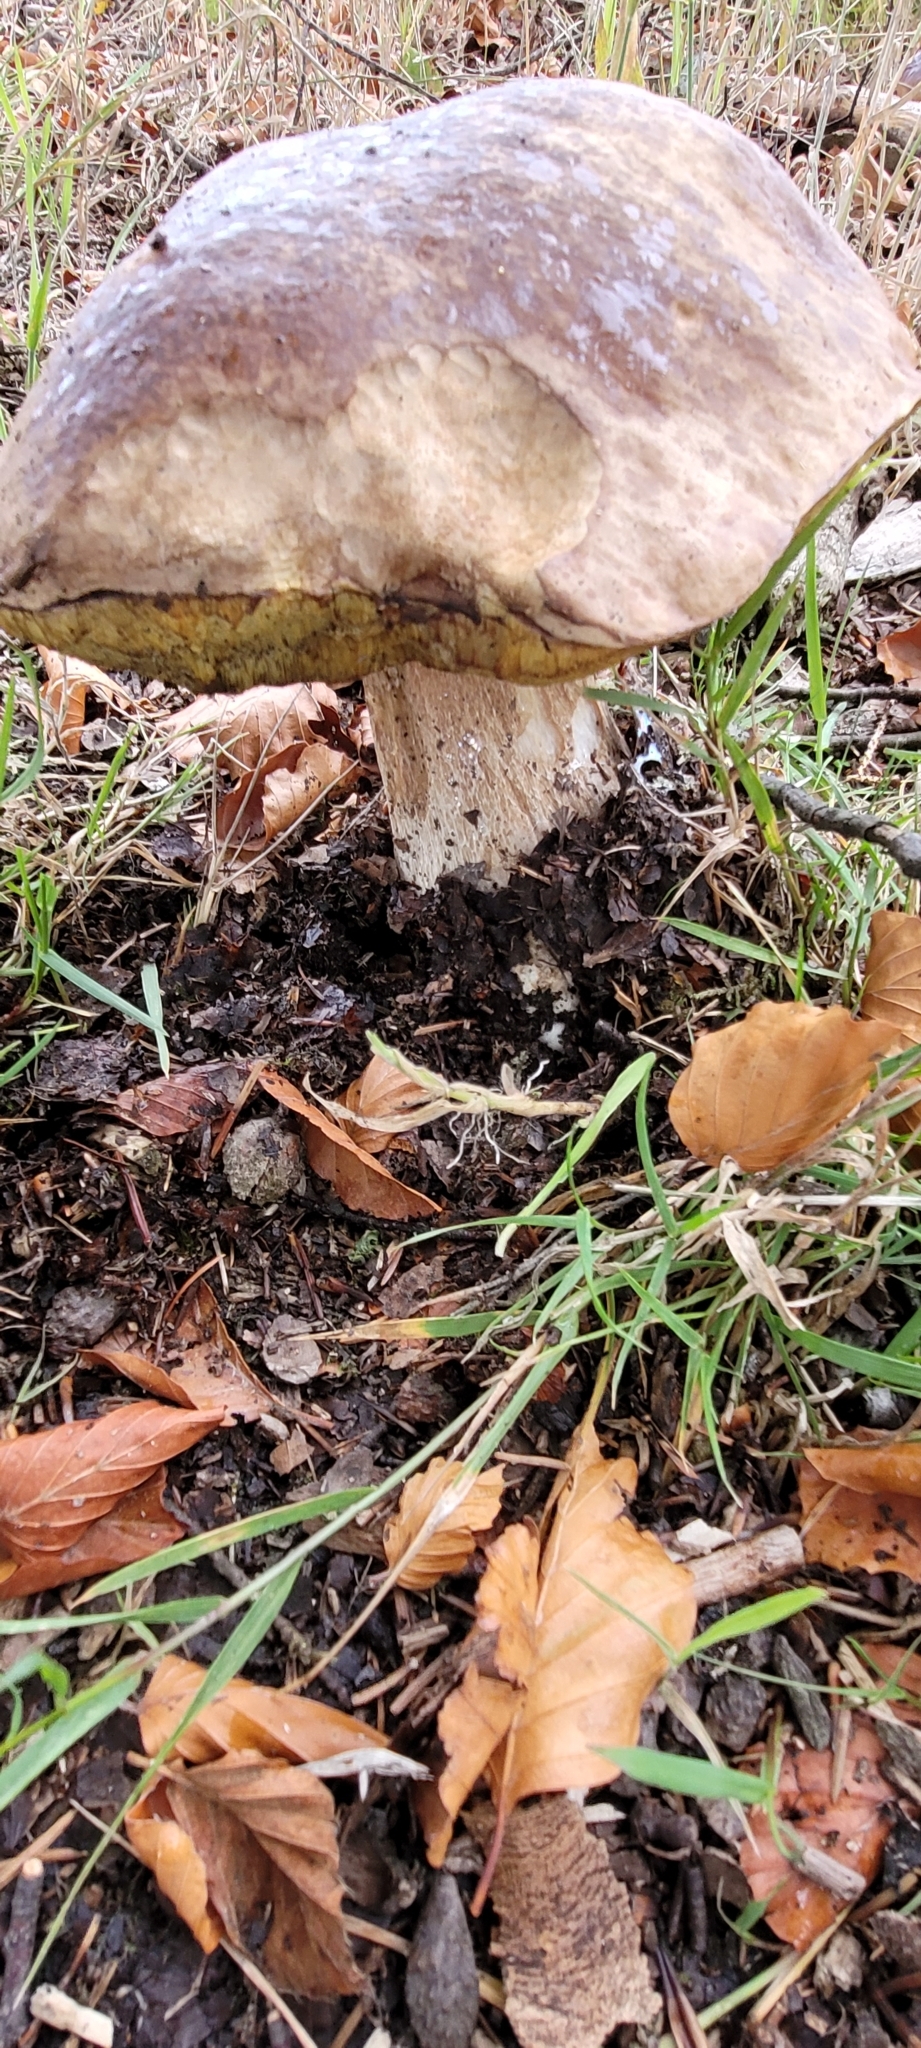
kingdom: Fungi
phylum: Basidiomycota
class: Agaricomycetes
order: Boletales
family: Boletaceae
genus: Boletus
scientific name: Boletus edulis
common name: Cep
